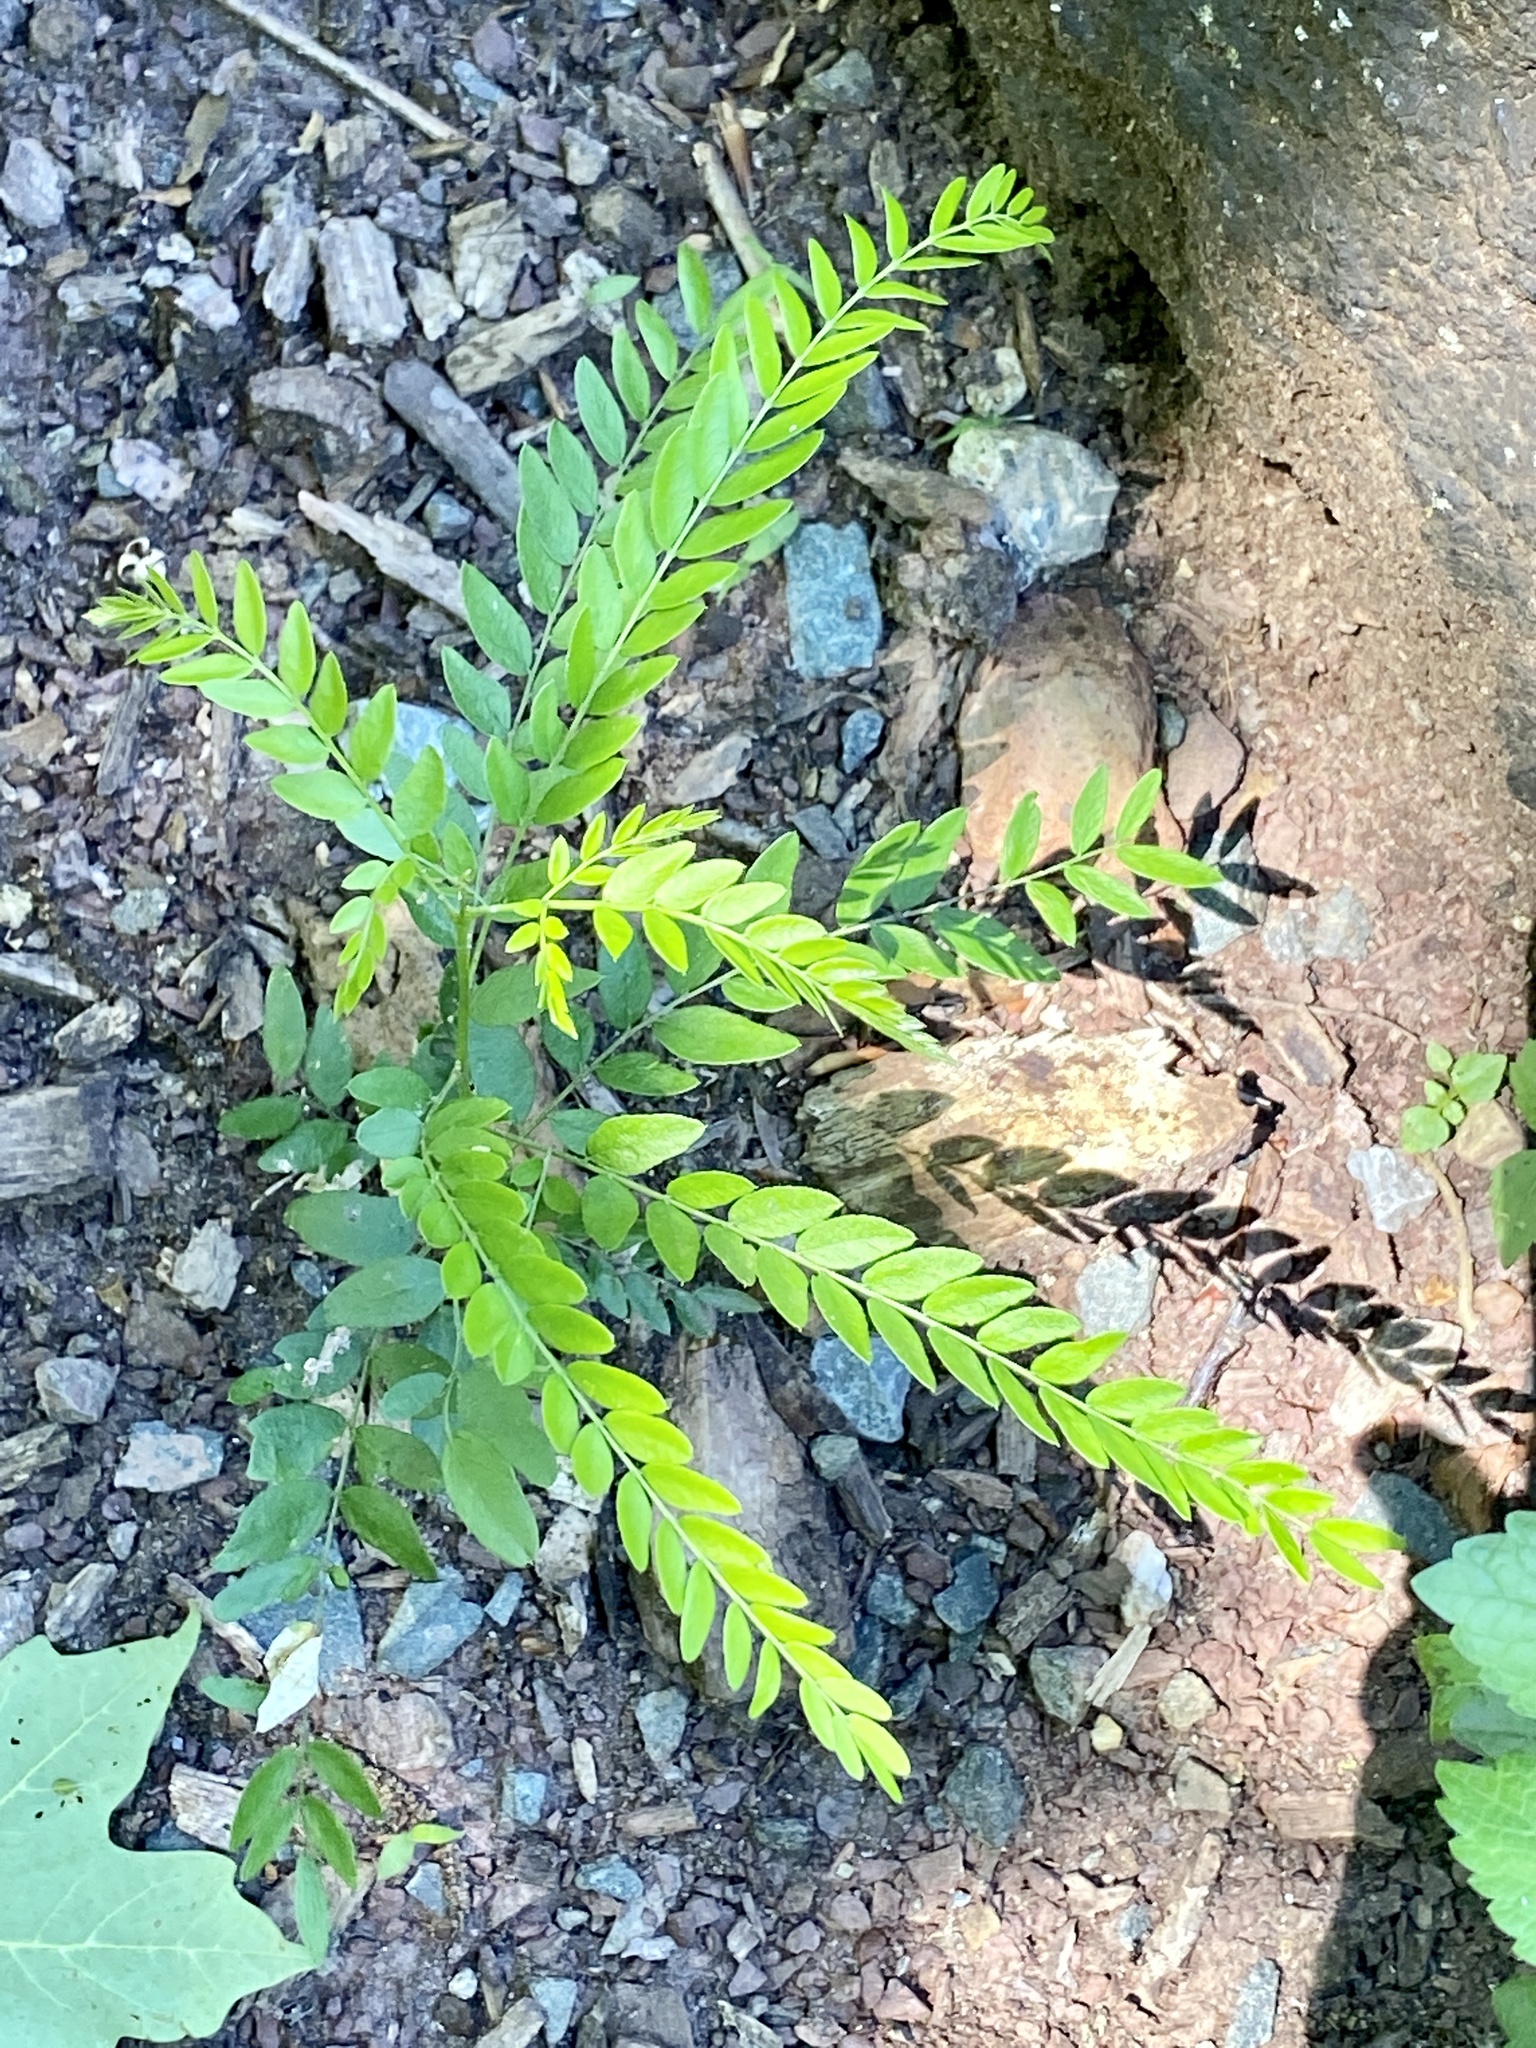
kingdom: Plantae
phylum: Tracheophyta
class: Magnoliopsida
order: Fabales
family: Fabaceae
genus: Gleditsia
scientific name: Gleditsia triacanthos
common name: Common honeylocust
